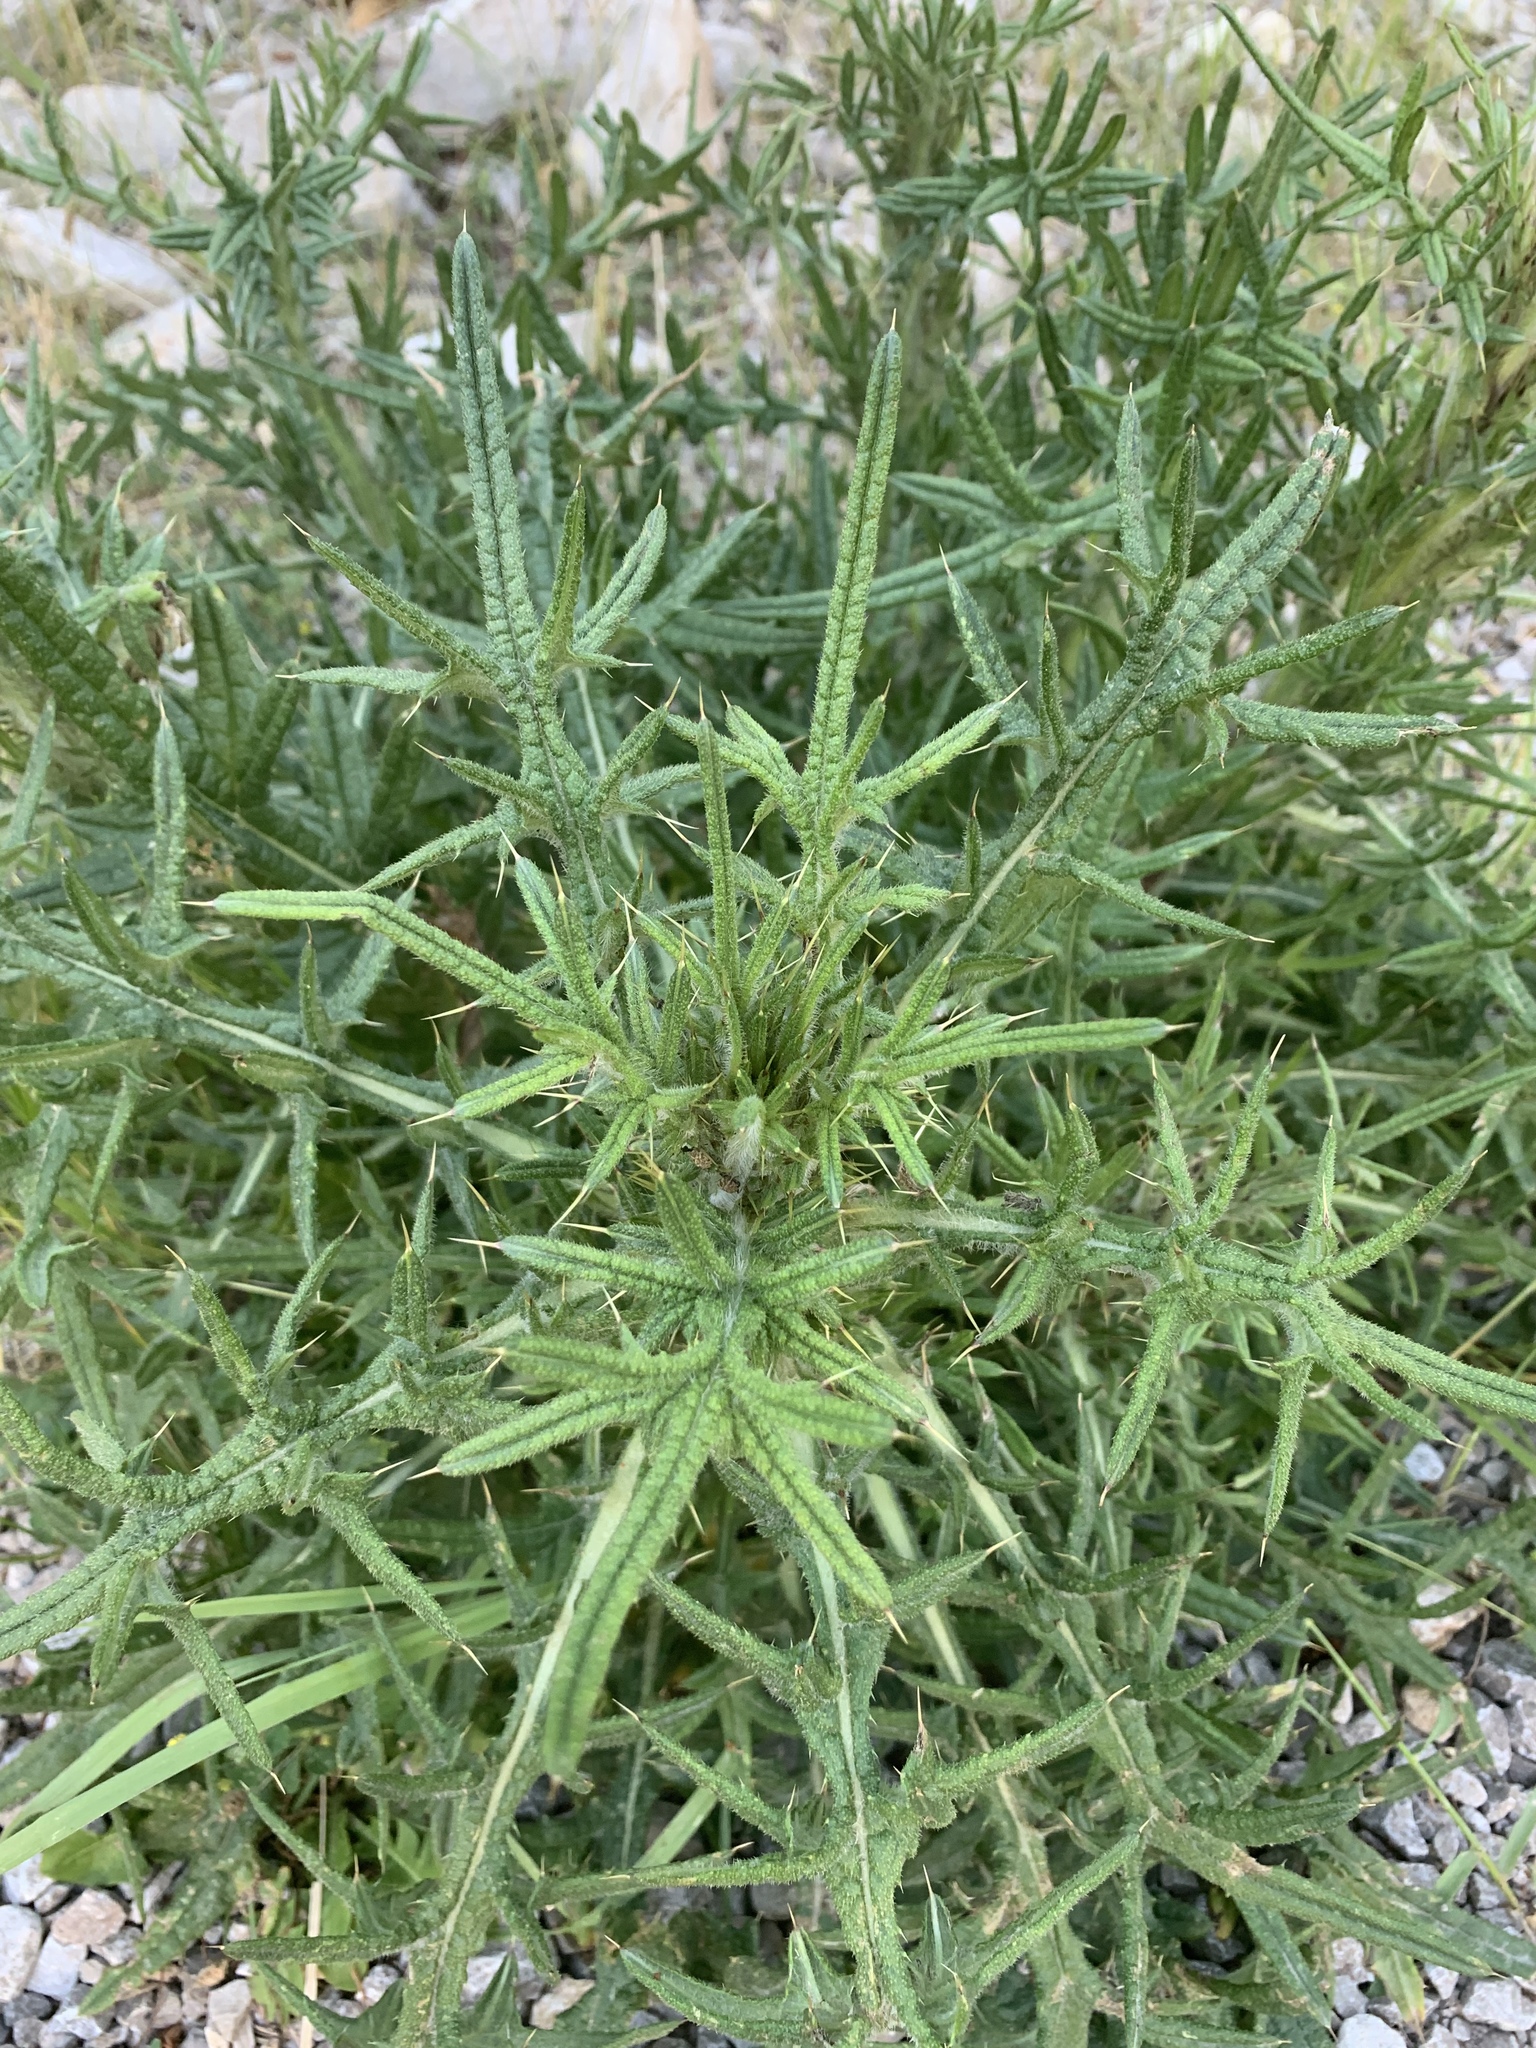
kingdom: Plantae
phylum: Tracheophyta
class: Magnoliopsida
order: Asterales
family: Asteraceae
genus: Cirsium
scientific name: Cirsium vulgare
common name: Bull thistle
